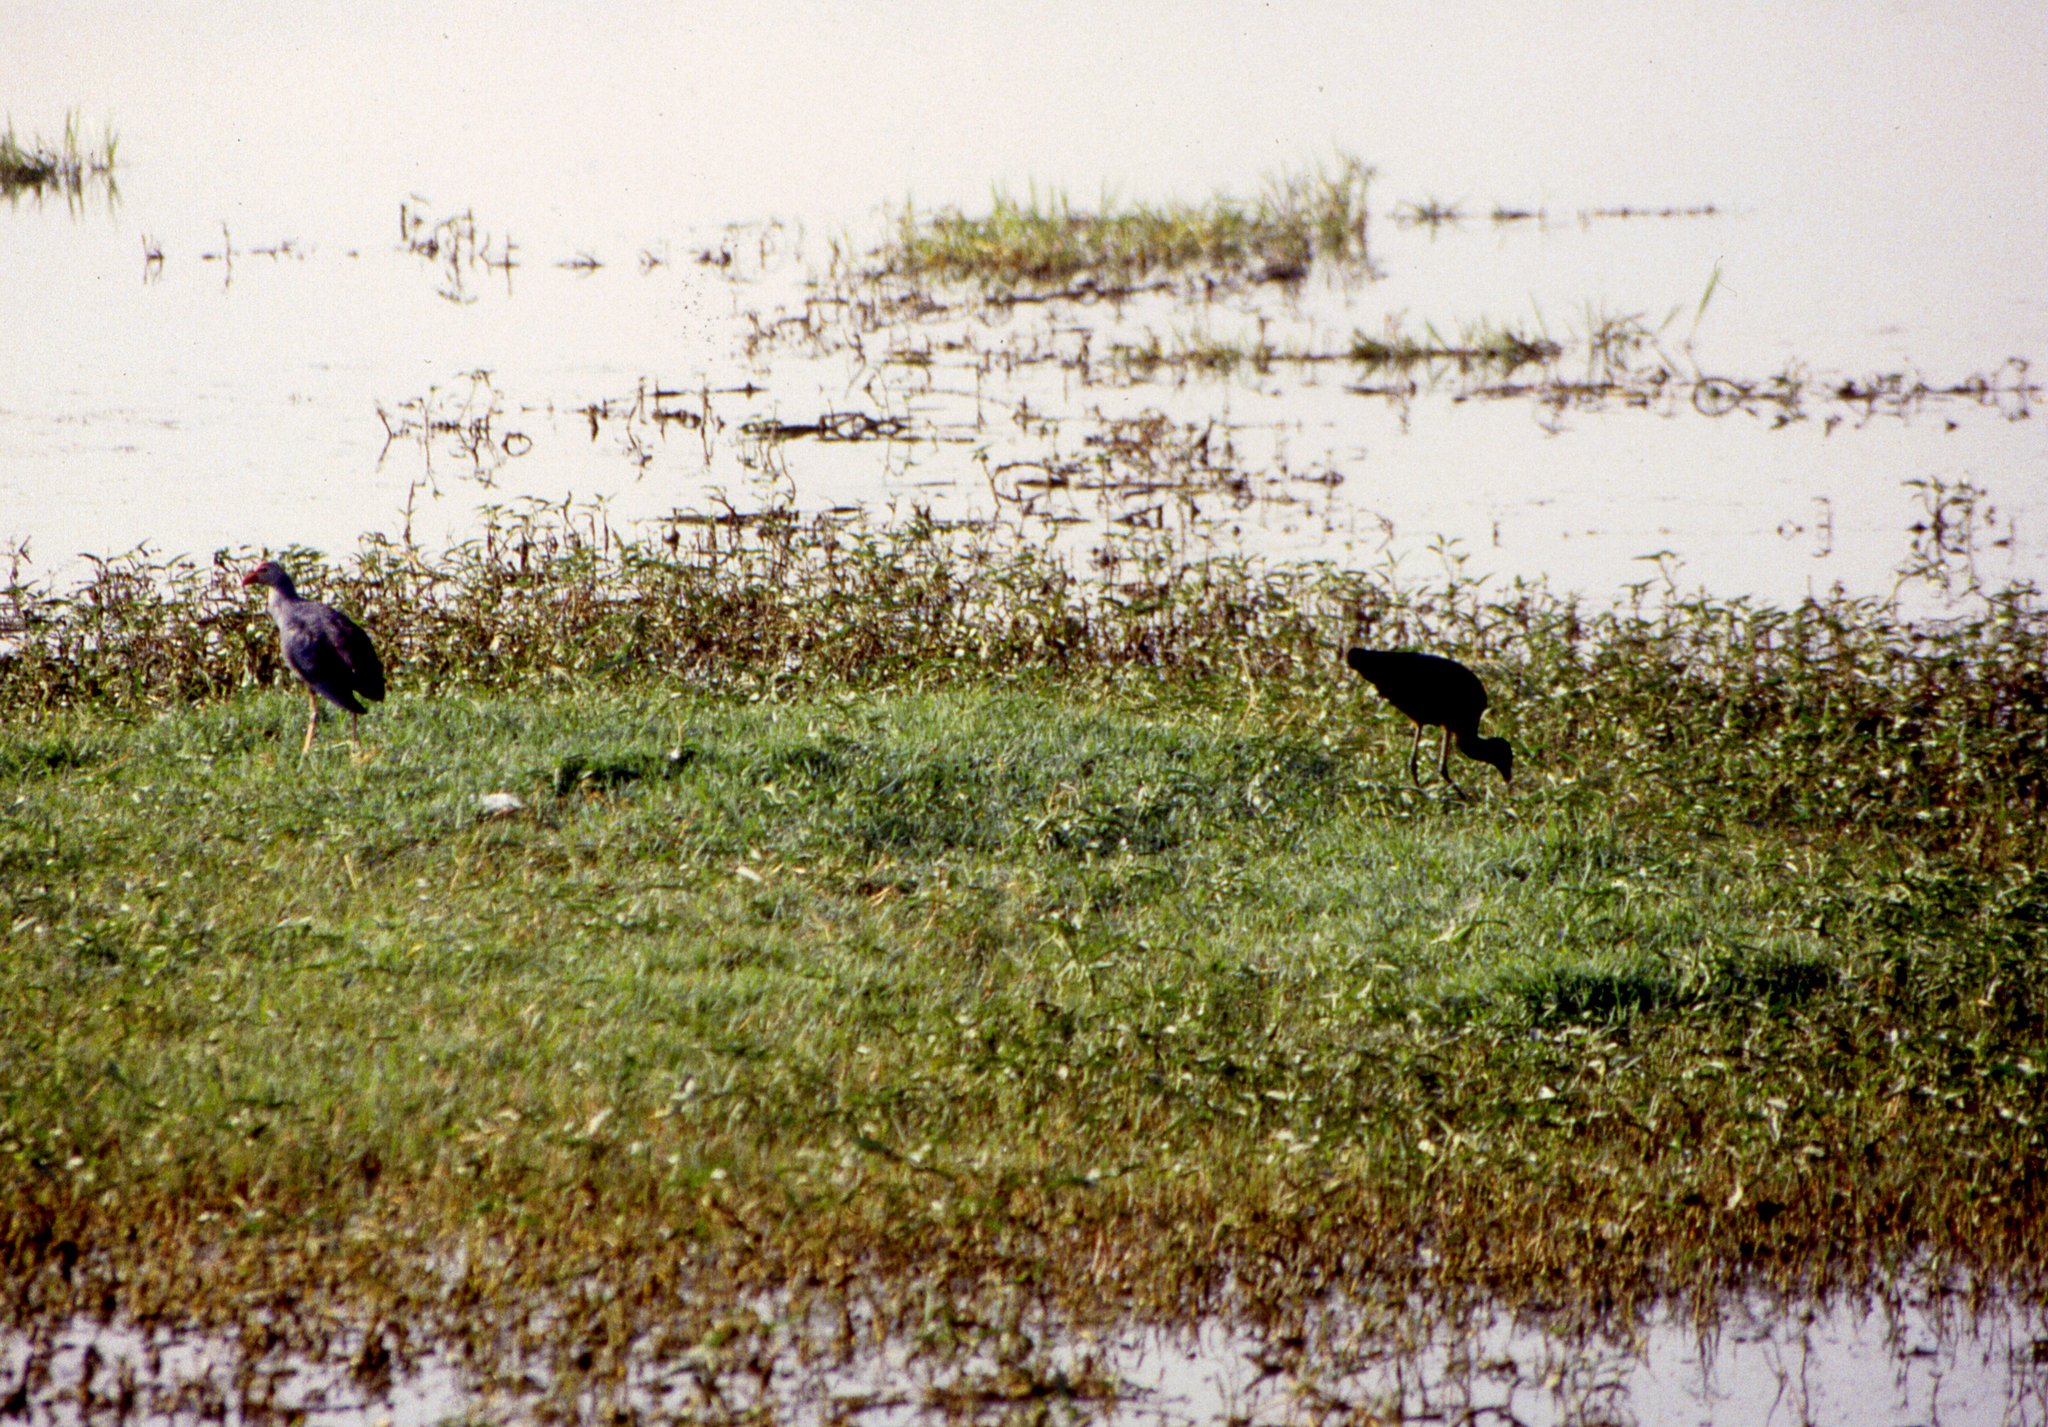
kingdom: Animalia
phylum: Chordata
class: Aves
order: Gruiformes
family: Rallidae
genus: Porphyrio
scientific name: Porphyrio porphyrio
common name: Purple swamphen
